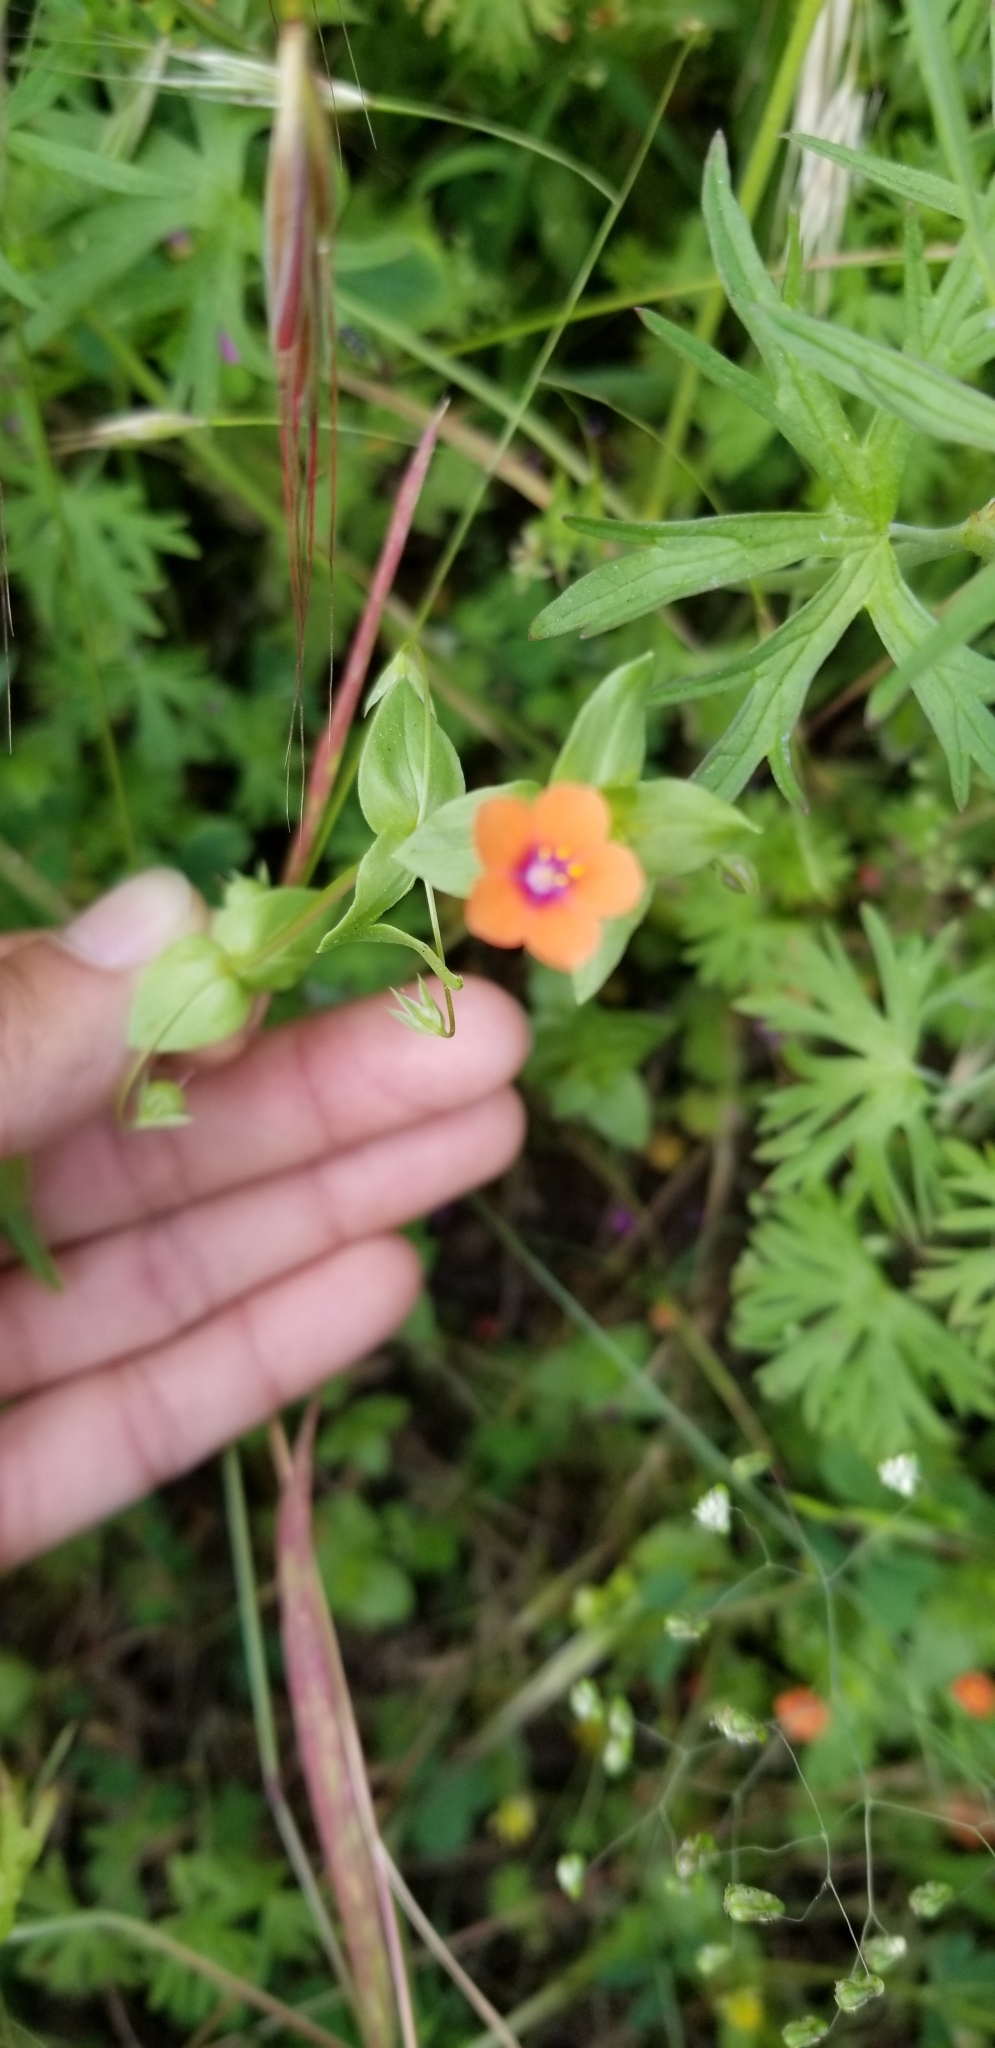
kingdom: Plantae
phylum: Tracheophyta
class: Magnoliopsida
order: Ericales
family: Primulaceae
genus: Lysimachia
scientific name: Lysimachia arvensis
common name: Scarlet pimpernel
